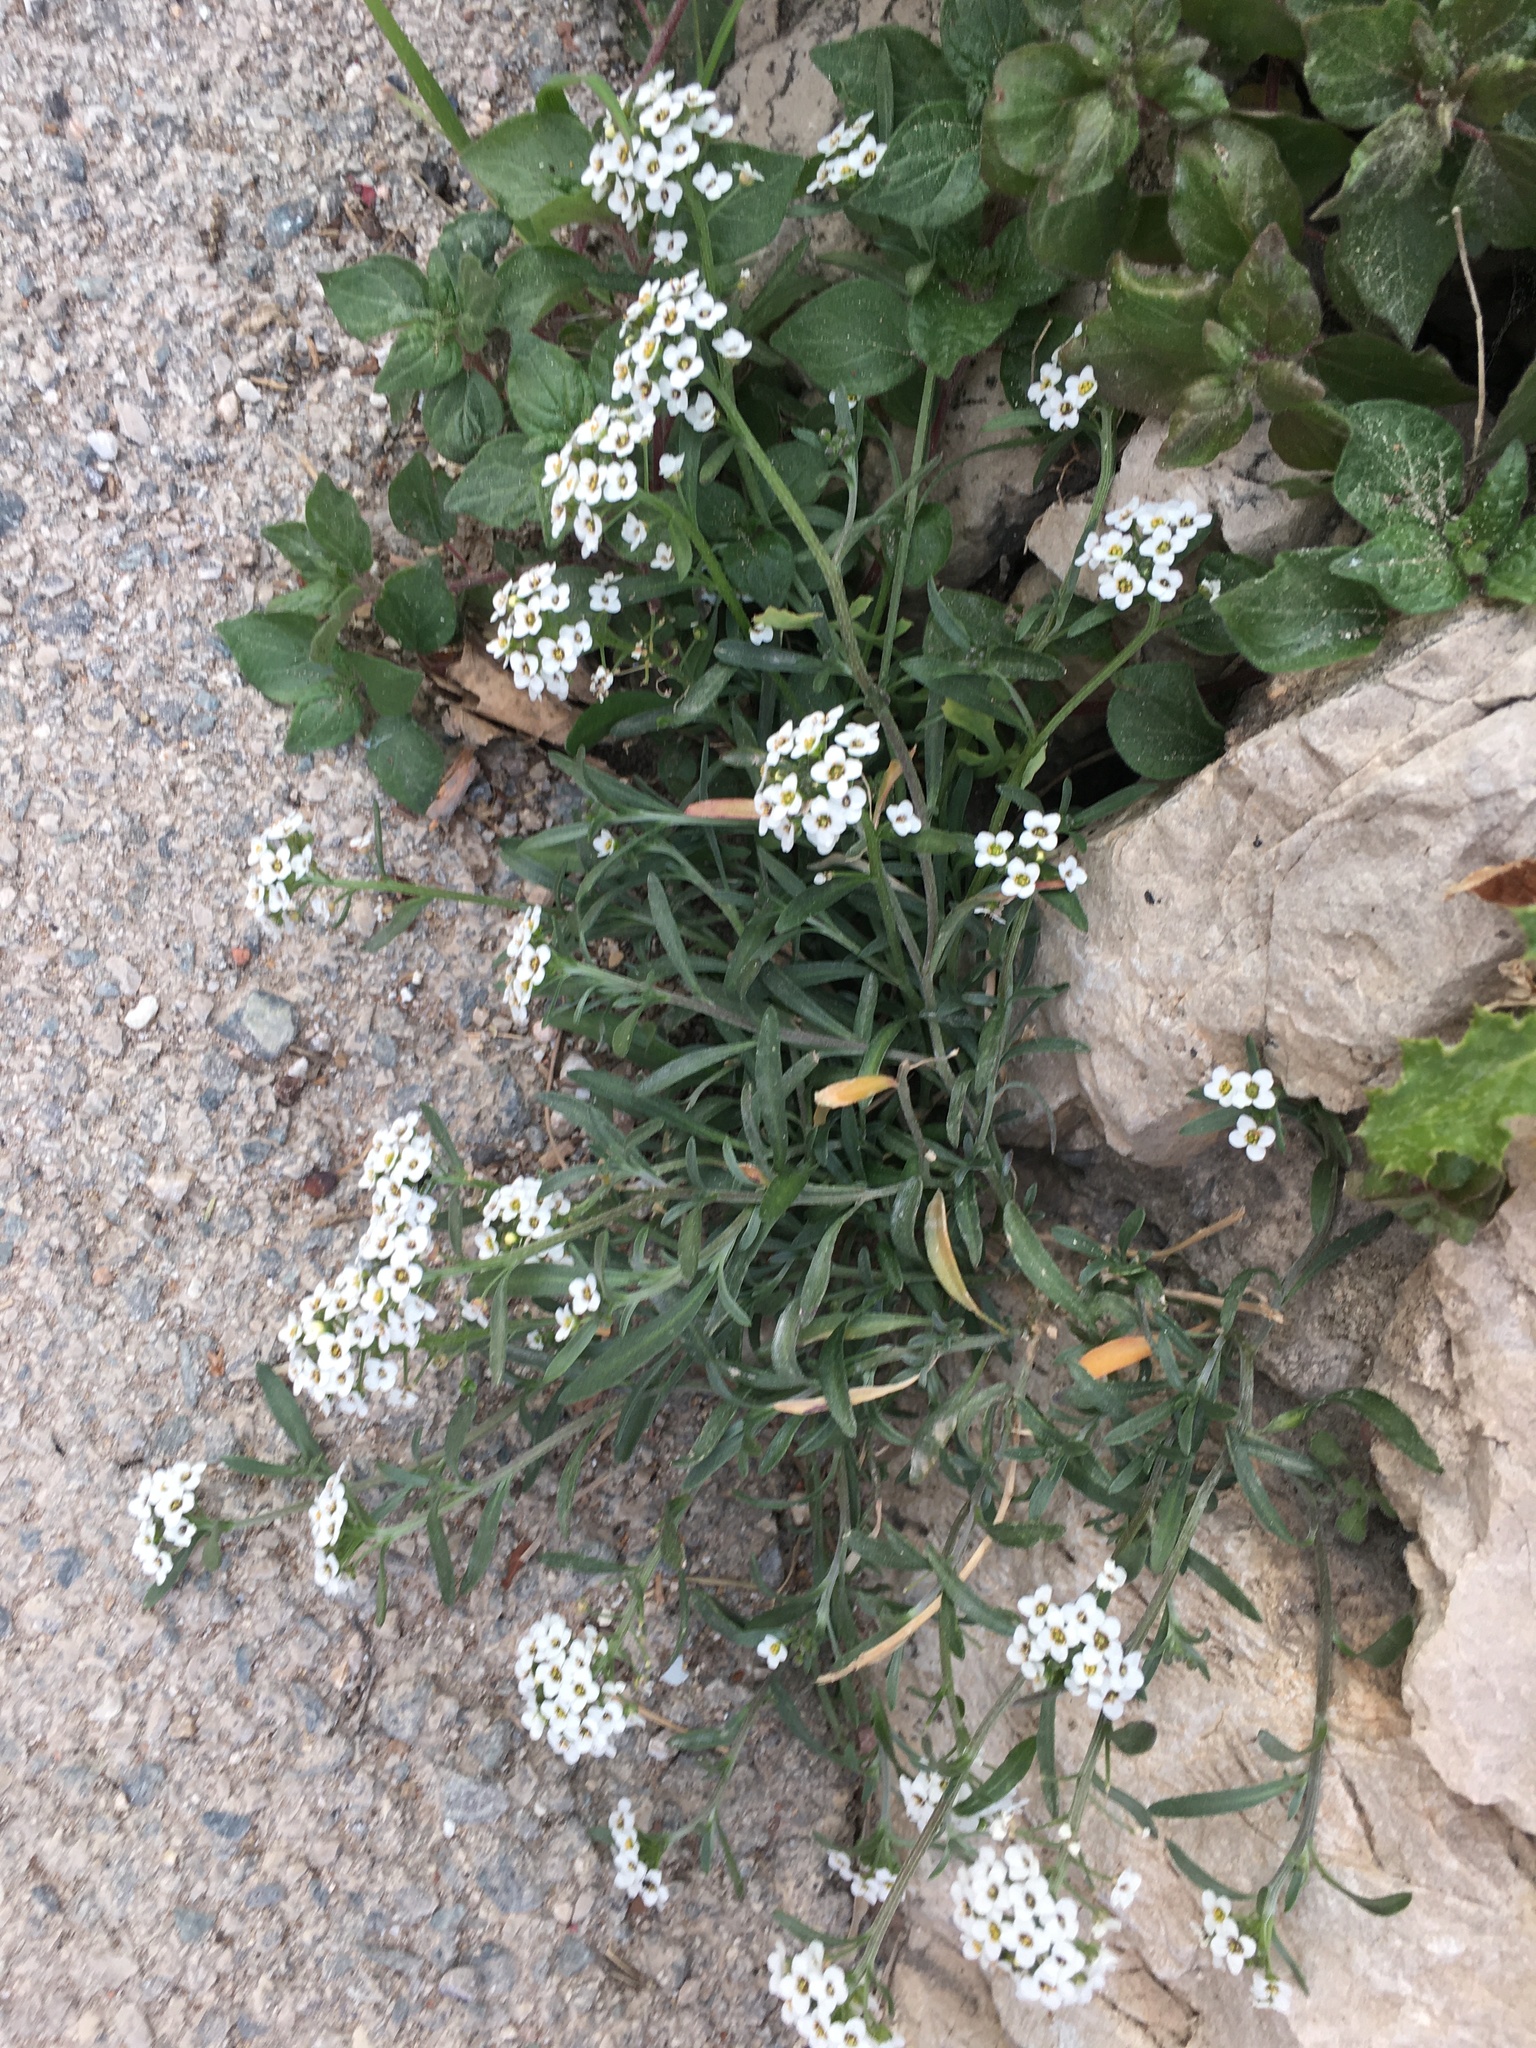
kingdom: Plantae
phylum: Tracheophyta
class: Magnoliopsida
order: Brassicales
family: Brassicaceae
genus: Lobularia
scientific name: Lobularia maritima
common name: Sweet alison
